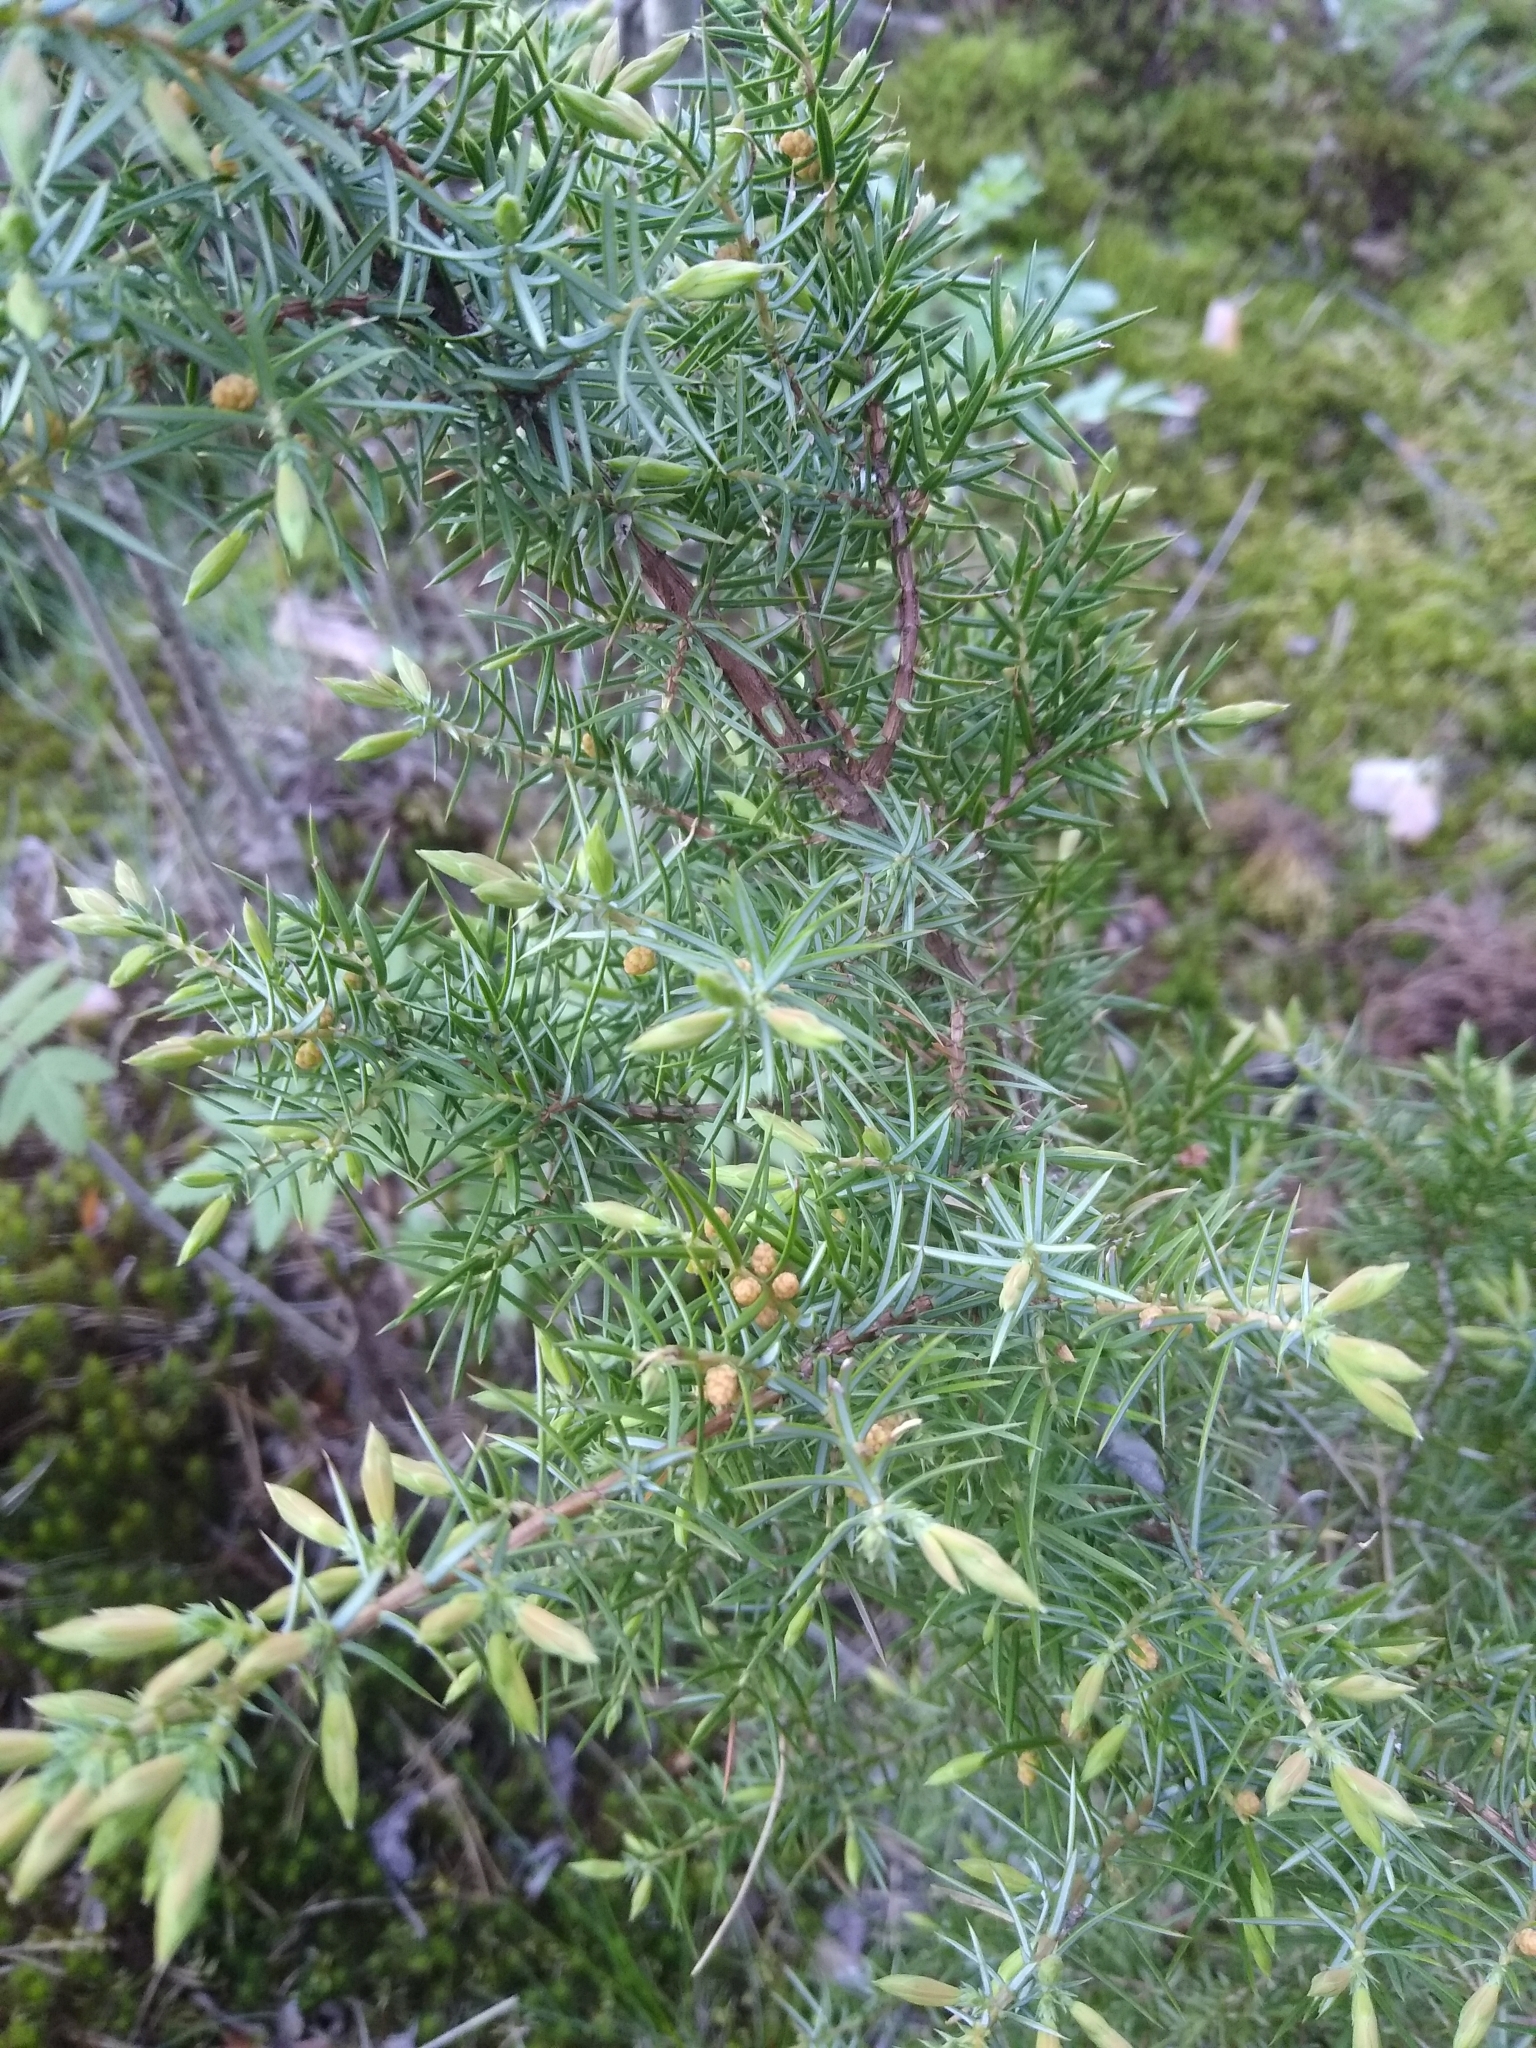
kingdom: Plantae
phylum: Tracheophyta
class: Pinopsida
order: Pinales
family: Cupressaceae
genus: Juniperus
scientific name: Juniperus communis
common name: Common juniper
